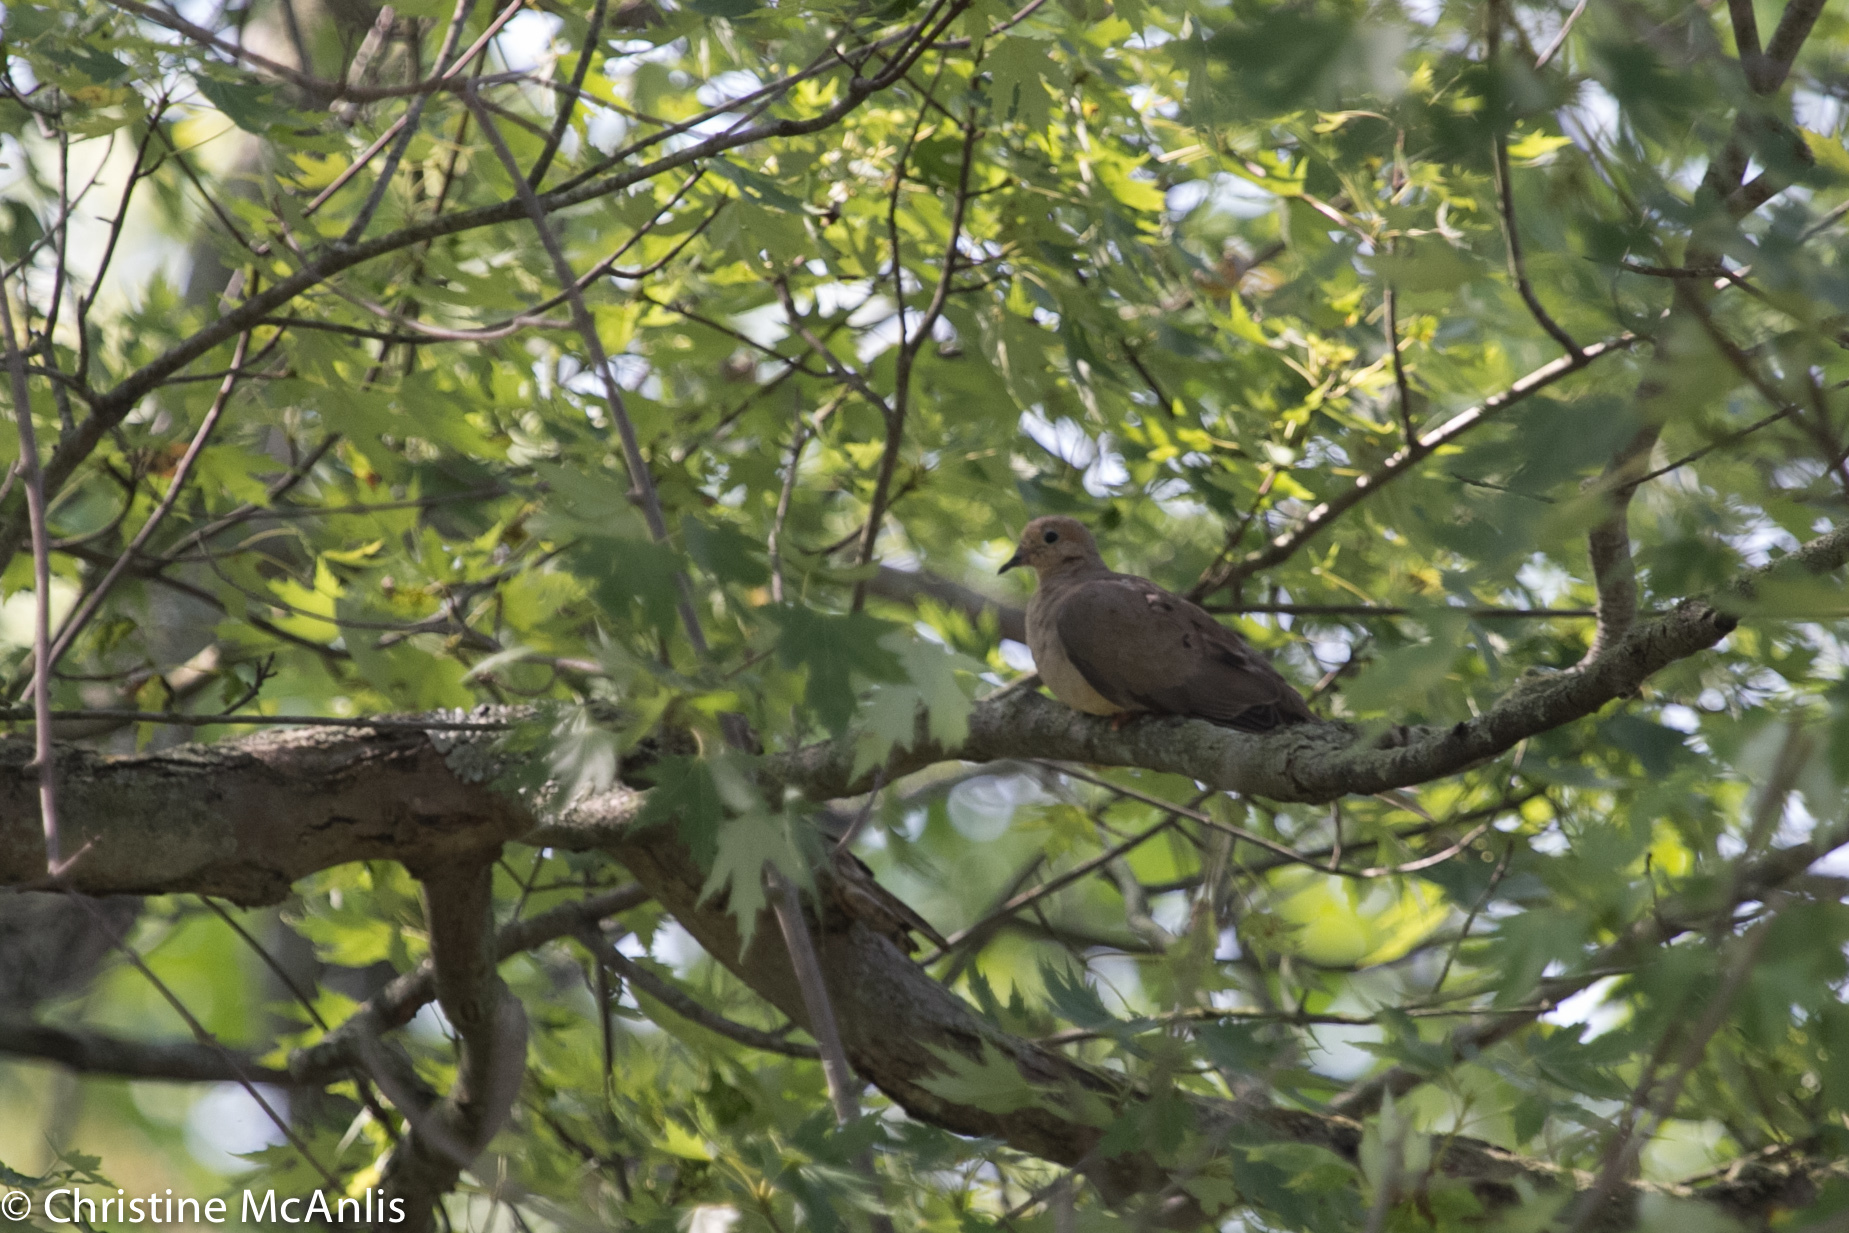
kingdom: Animalia
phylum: Chordata
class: Aves
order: Columbiformes
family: Columbidae
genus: Zenaida
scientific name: Zenaida macroura
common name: Mourning dove
